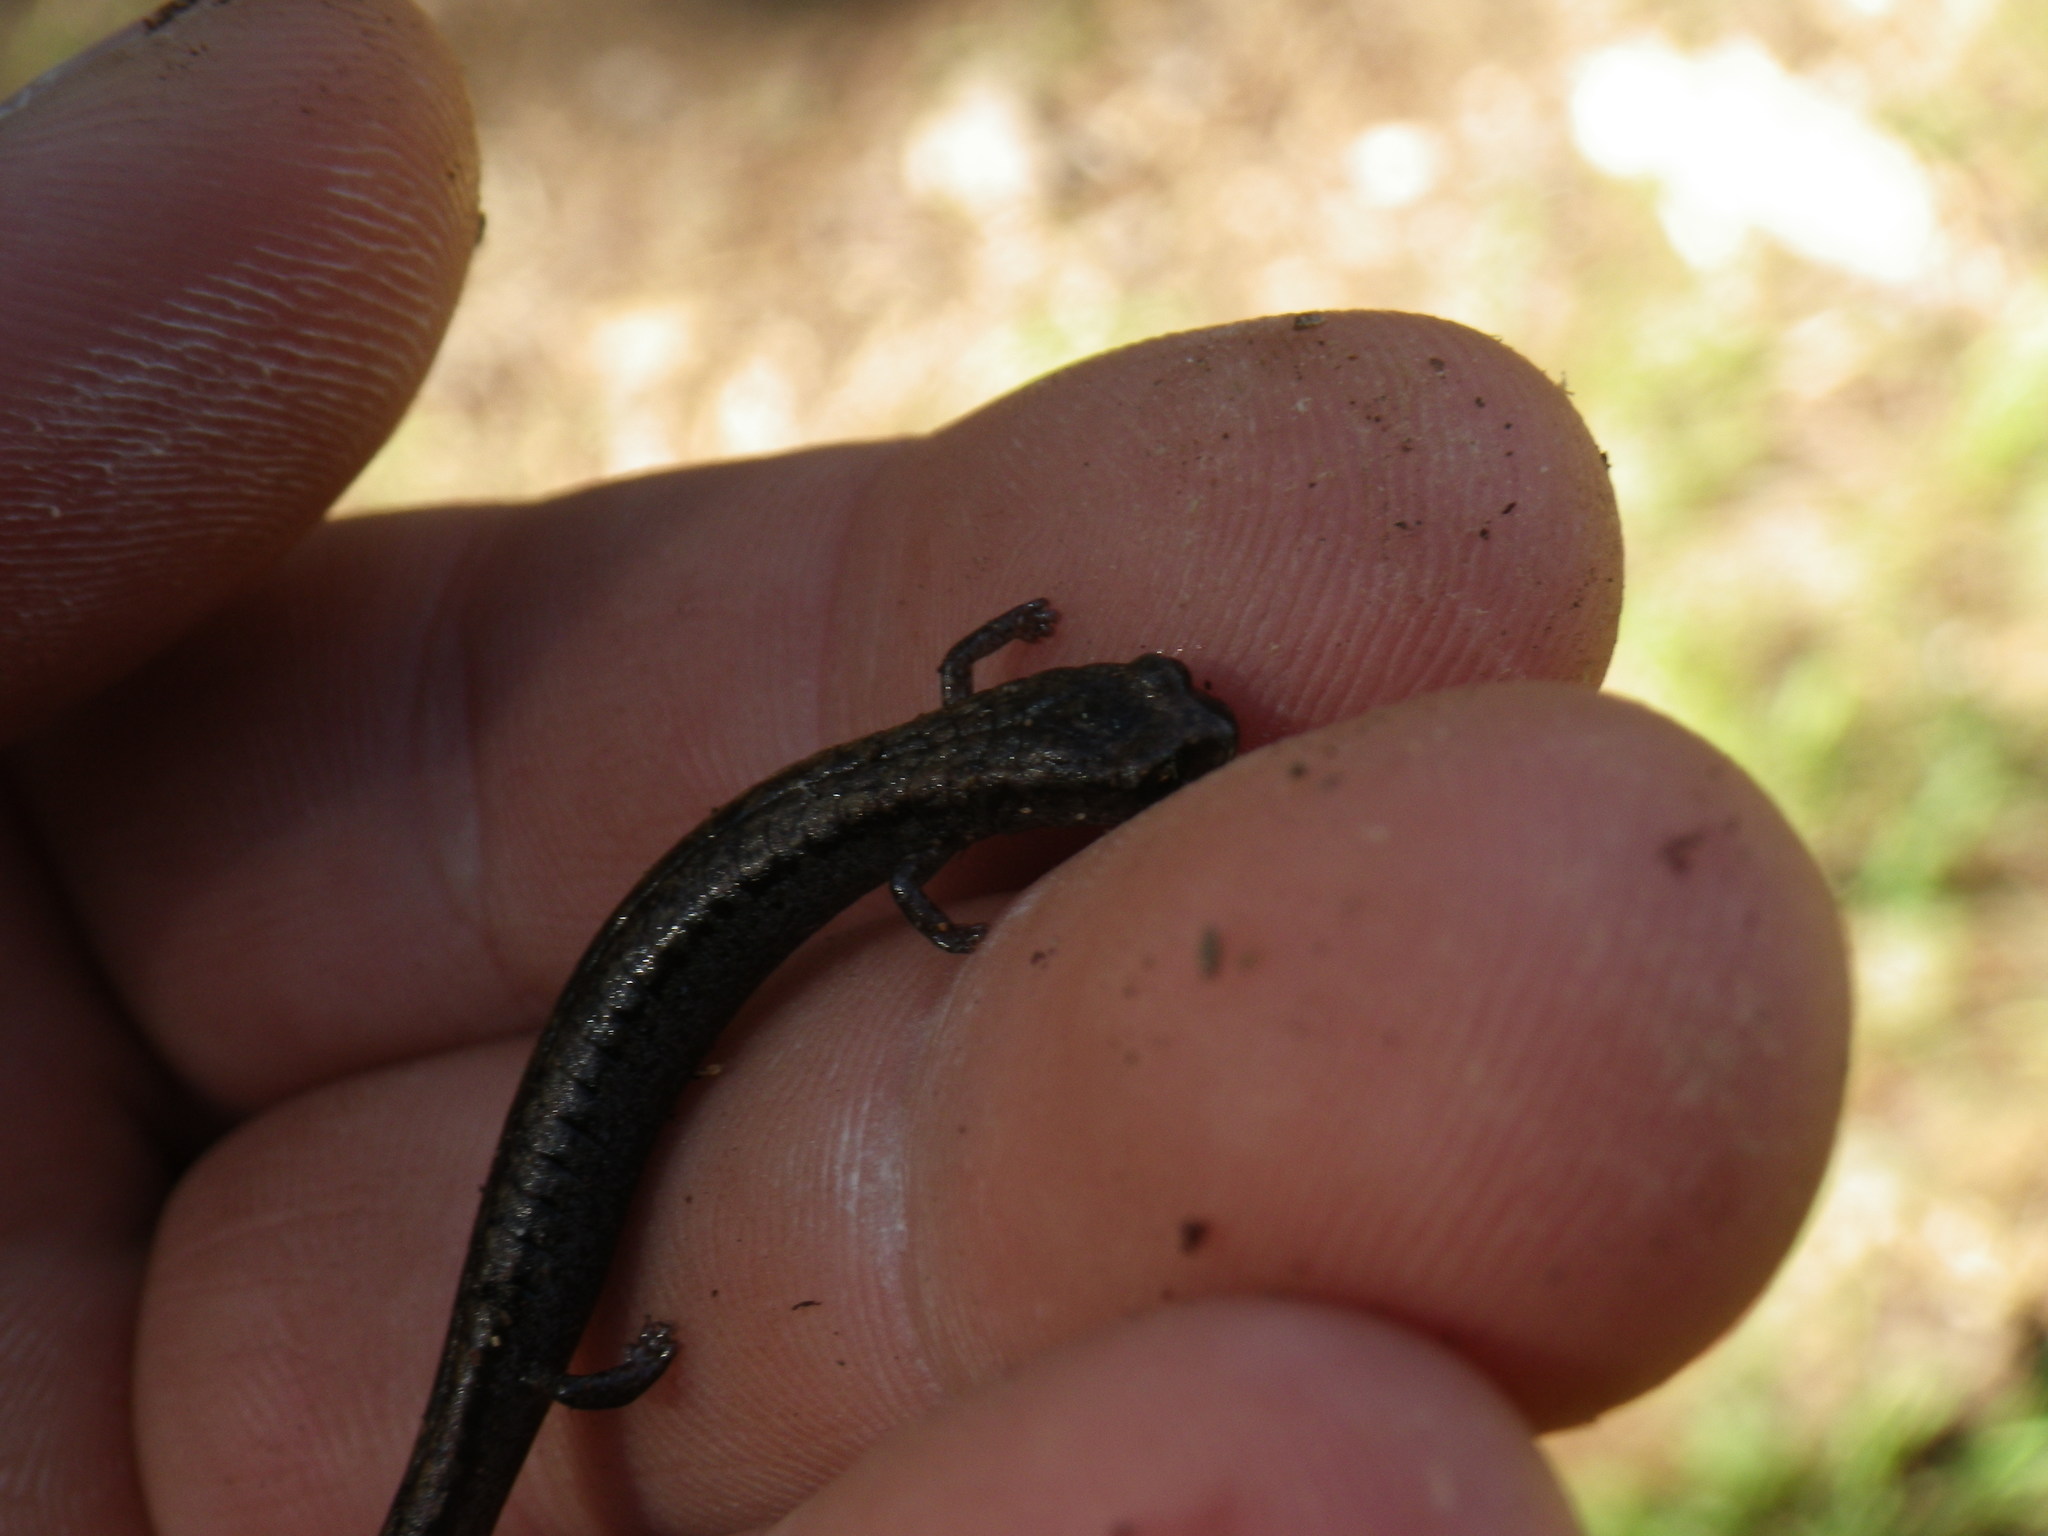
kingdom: Animalia
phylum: Chordata
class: Amphibia
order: Caudata
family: Plethodontidae
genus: Batrachoseps
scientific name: Batrachoseps attenuatus
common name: California slender salamander
